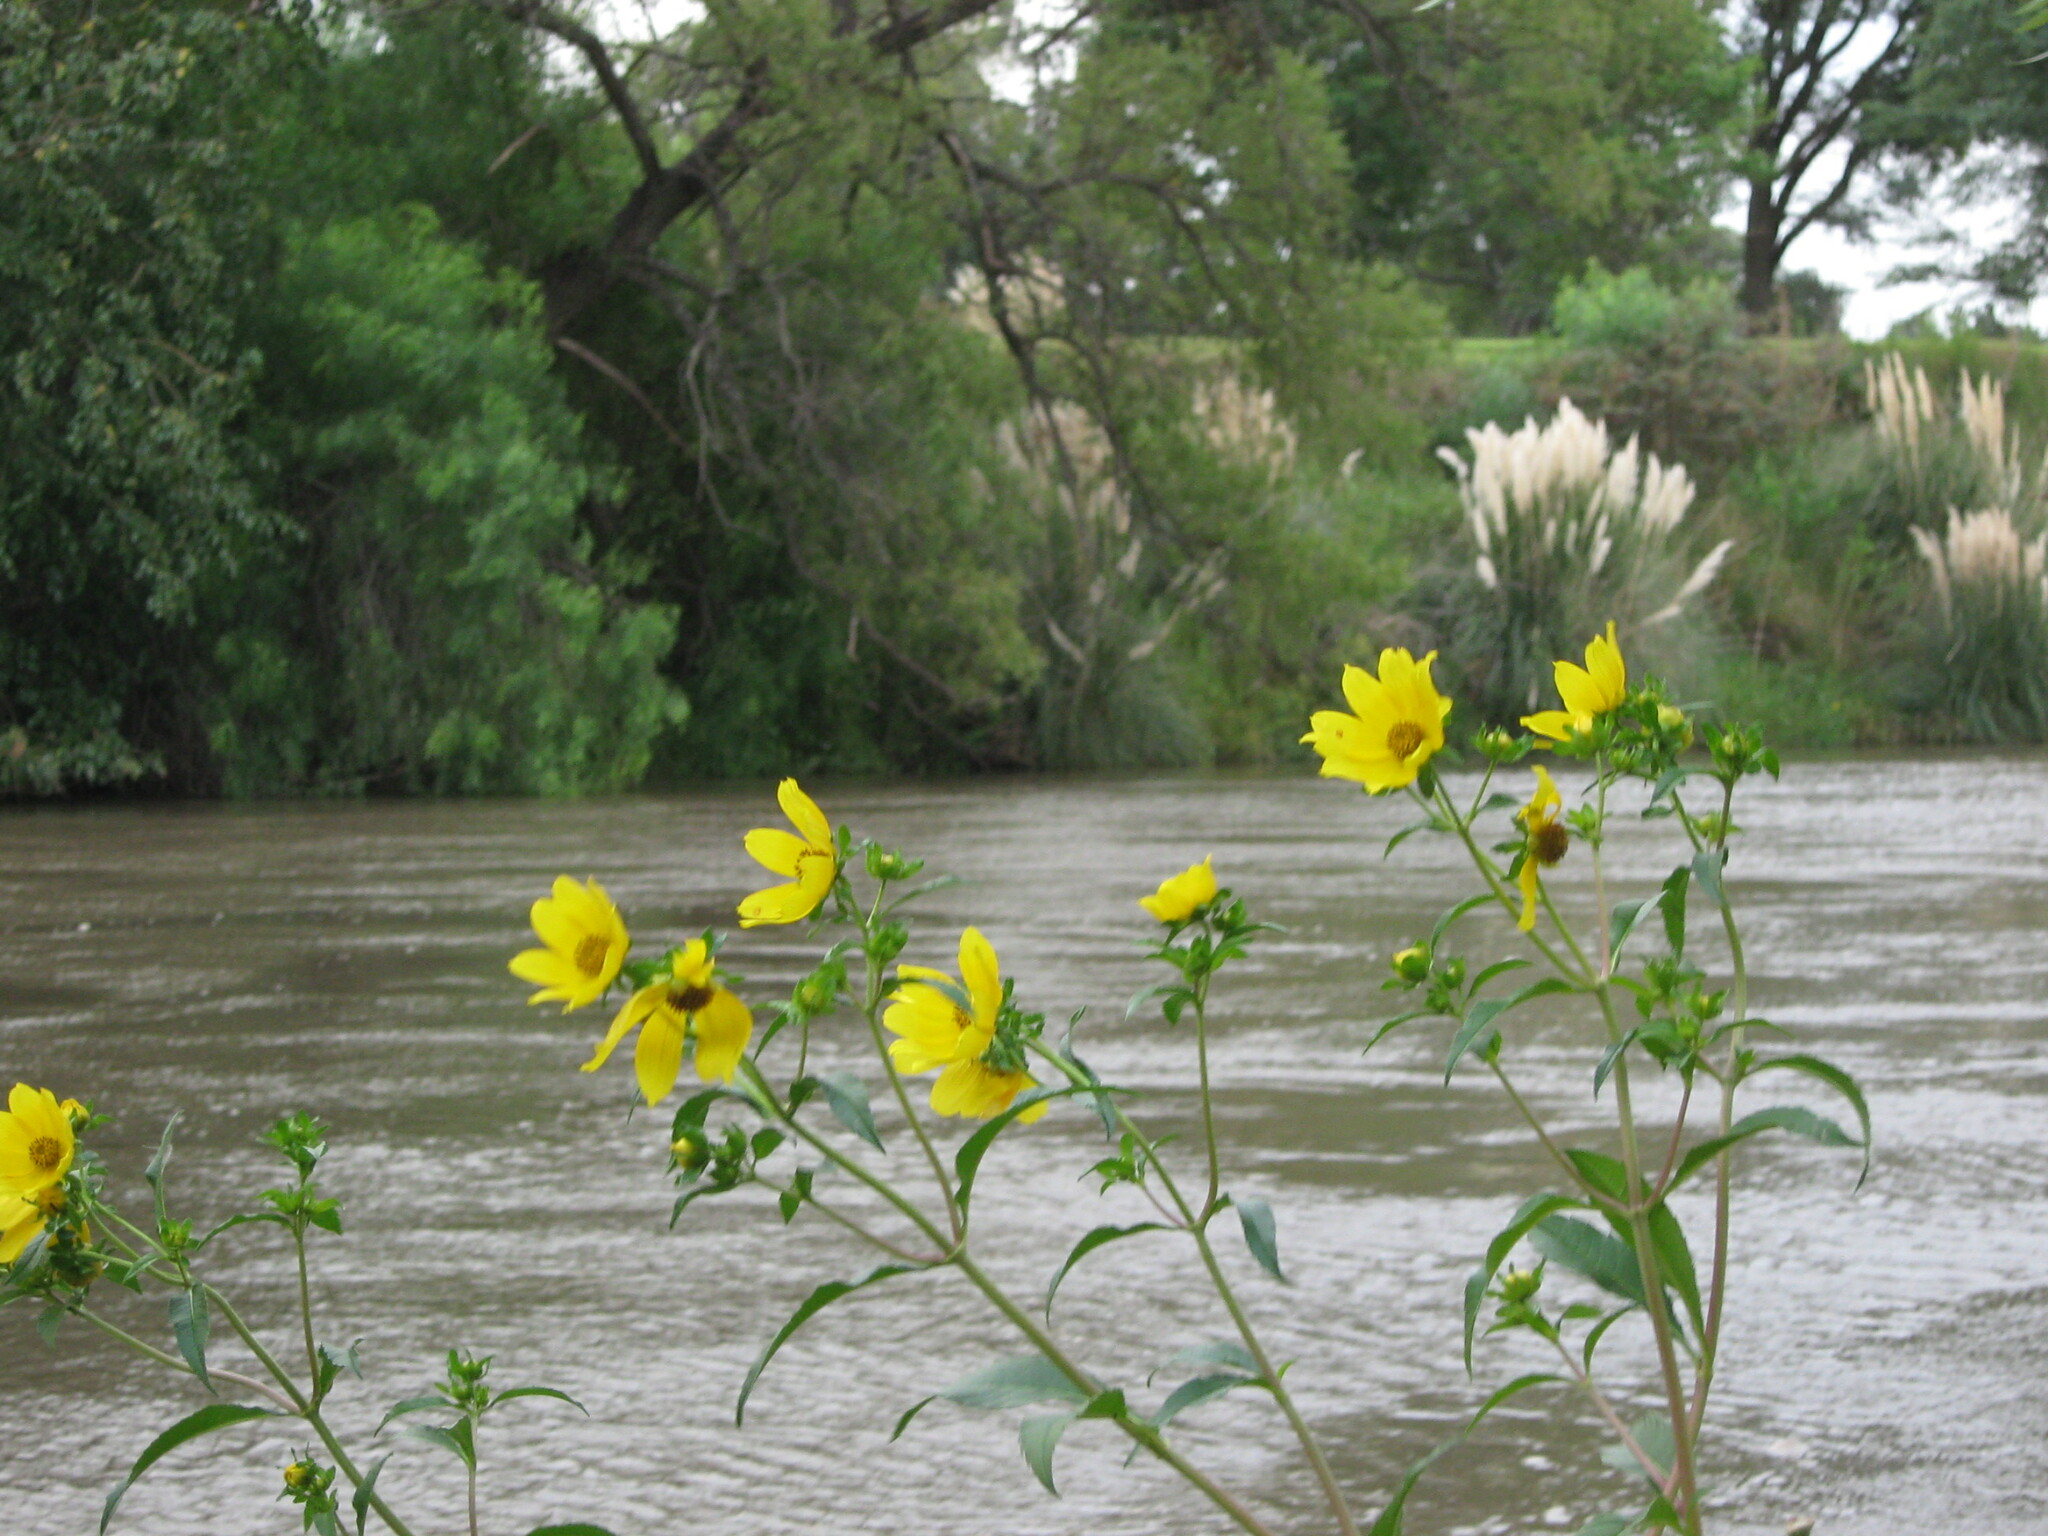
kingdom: Plantae
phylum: Tracheophyta
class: Magnoliopsida
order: Asterales
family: Asteraceae
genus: Bidens
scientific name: Bidens laevis
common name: Larger bur-marigold
